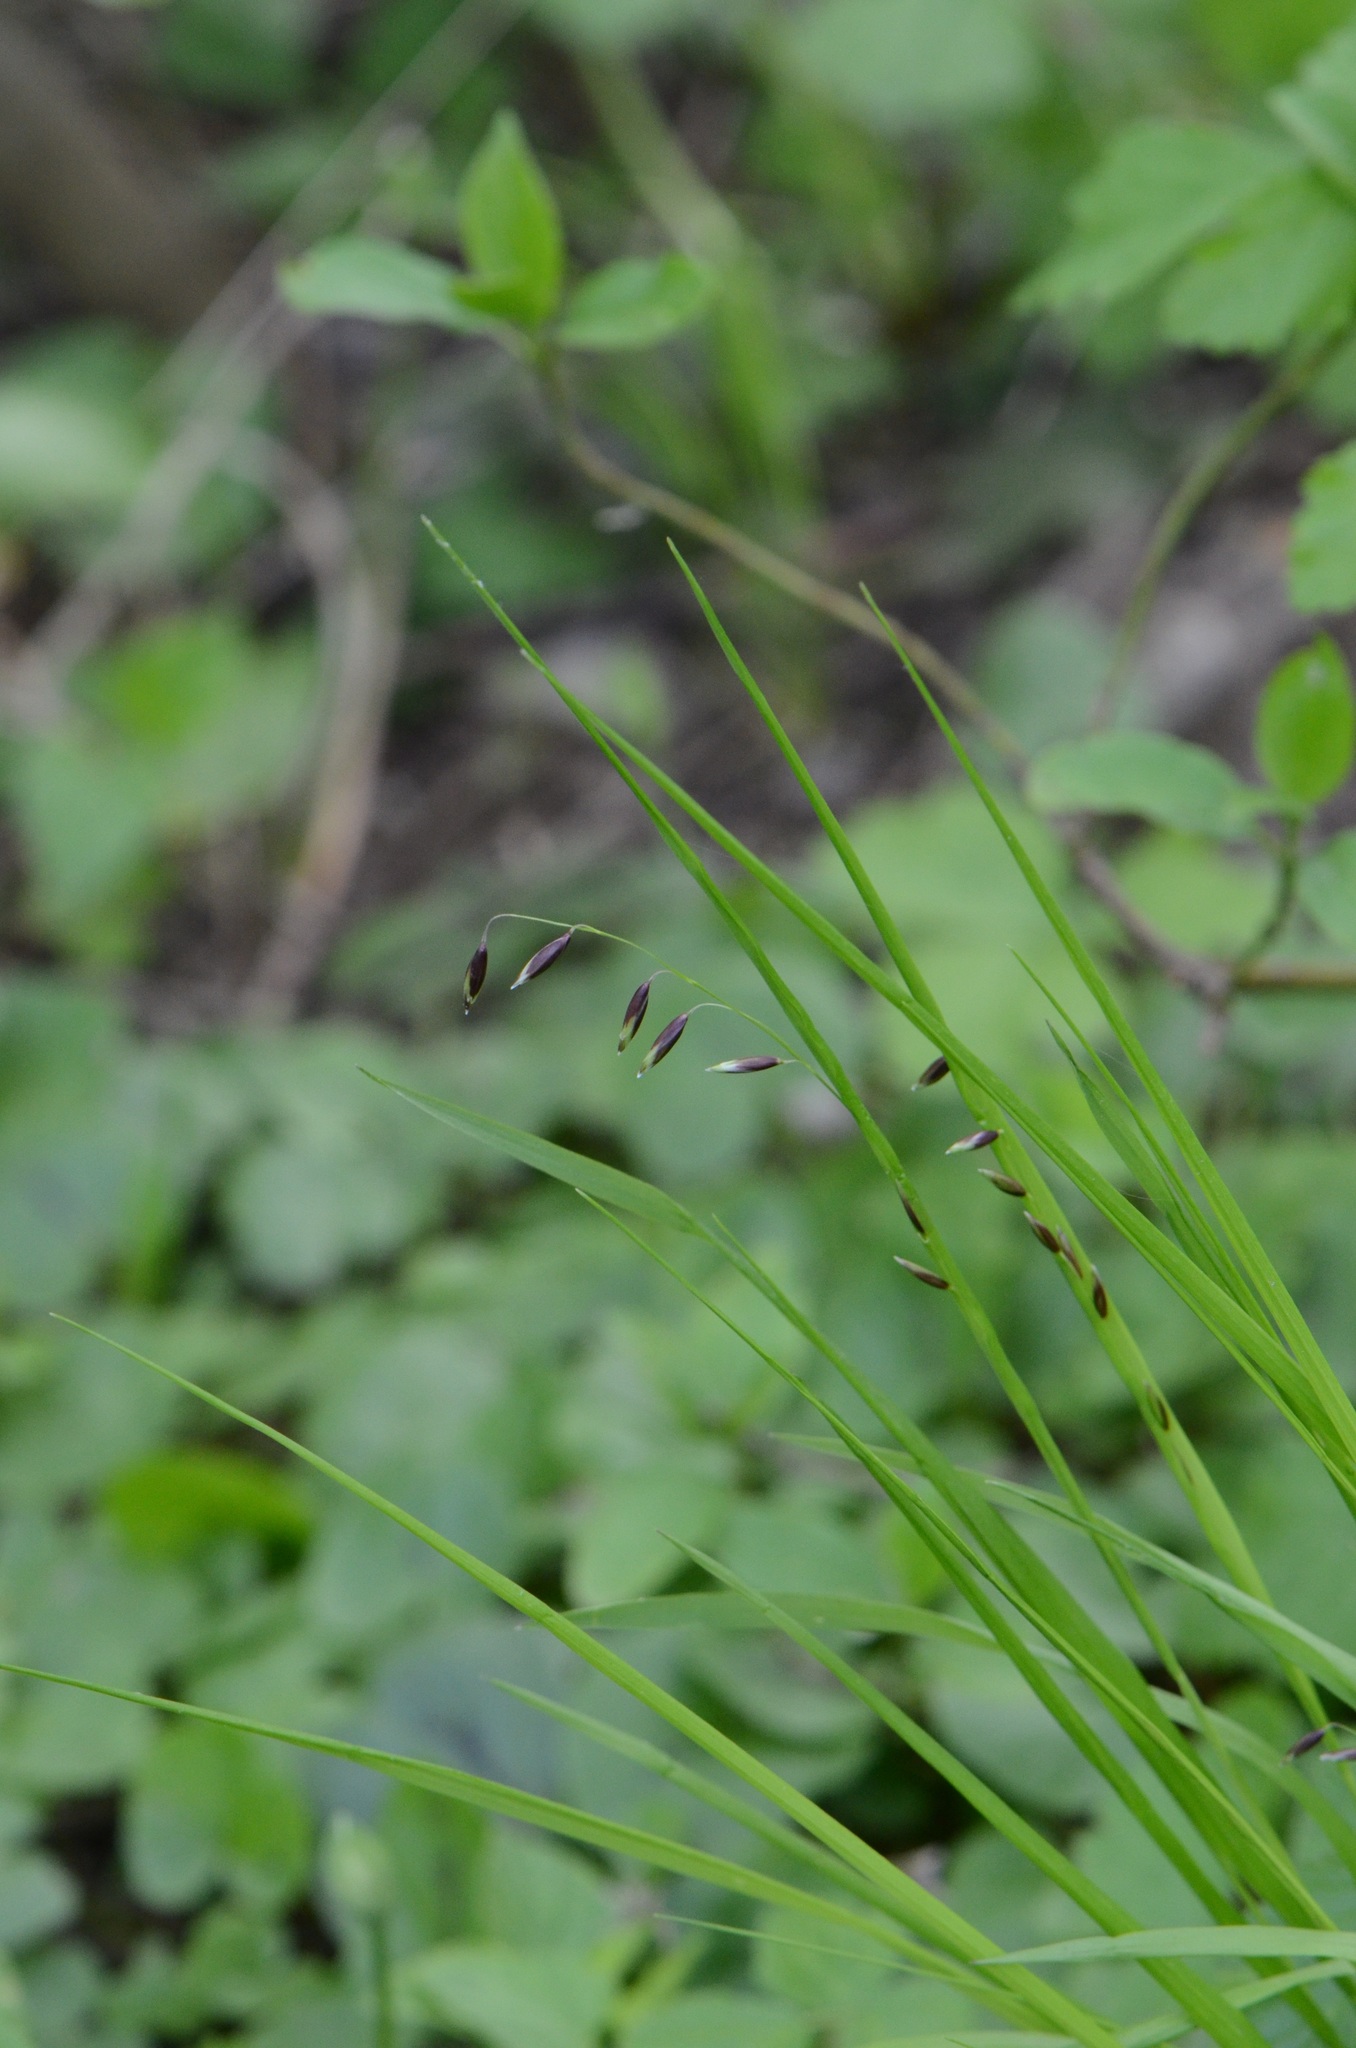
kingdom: Plantae
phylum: Tracheophyta
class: Liliopsida
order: Poales
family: Poaceae
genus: Melica
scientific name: Melica nutans
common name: Mountain melick
